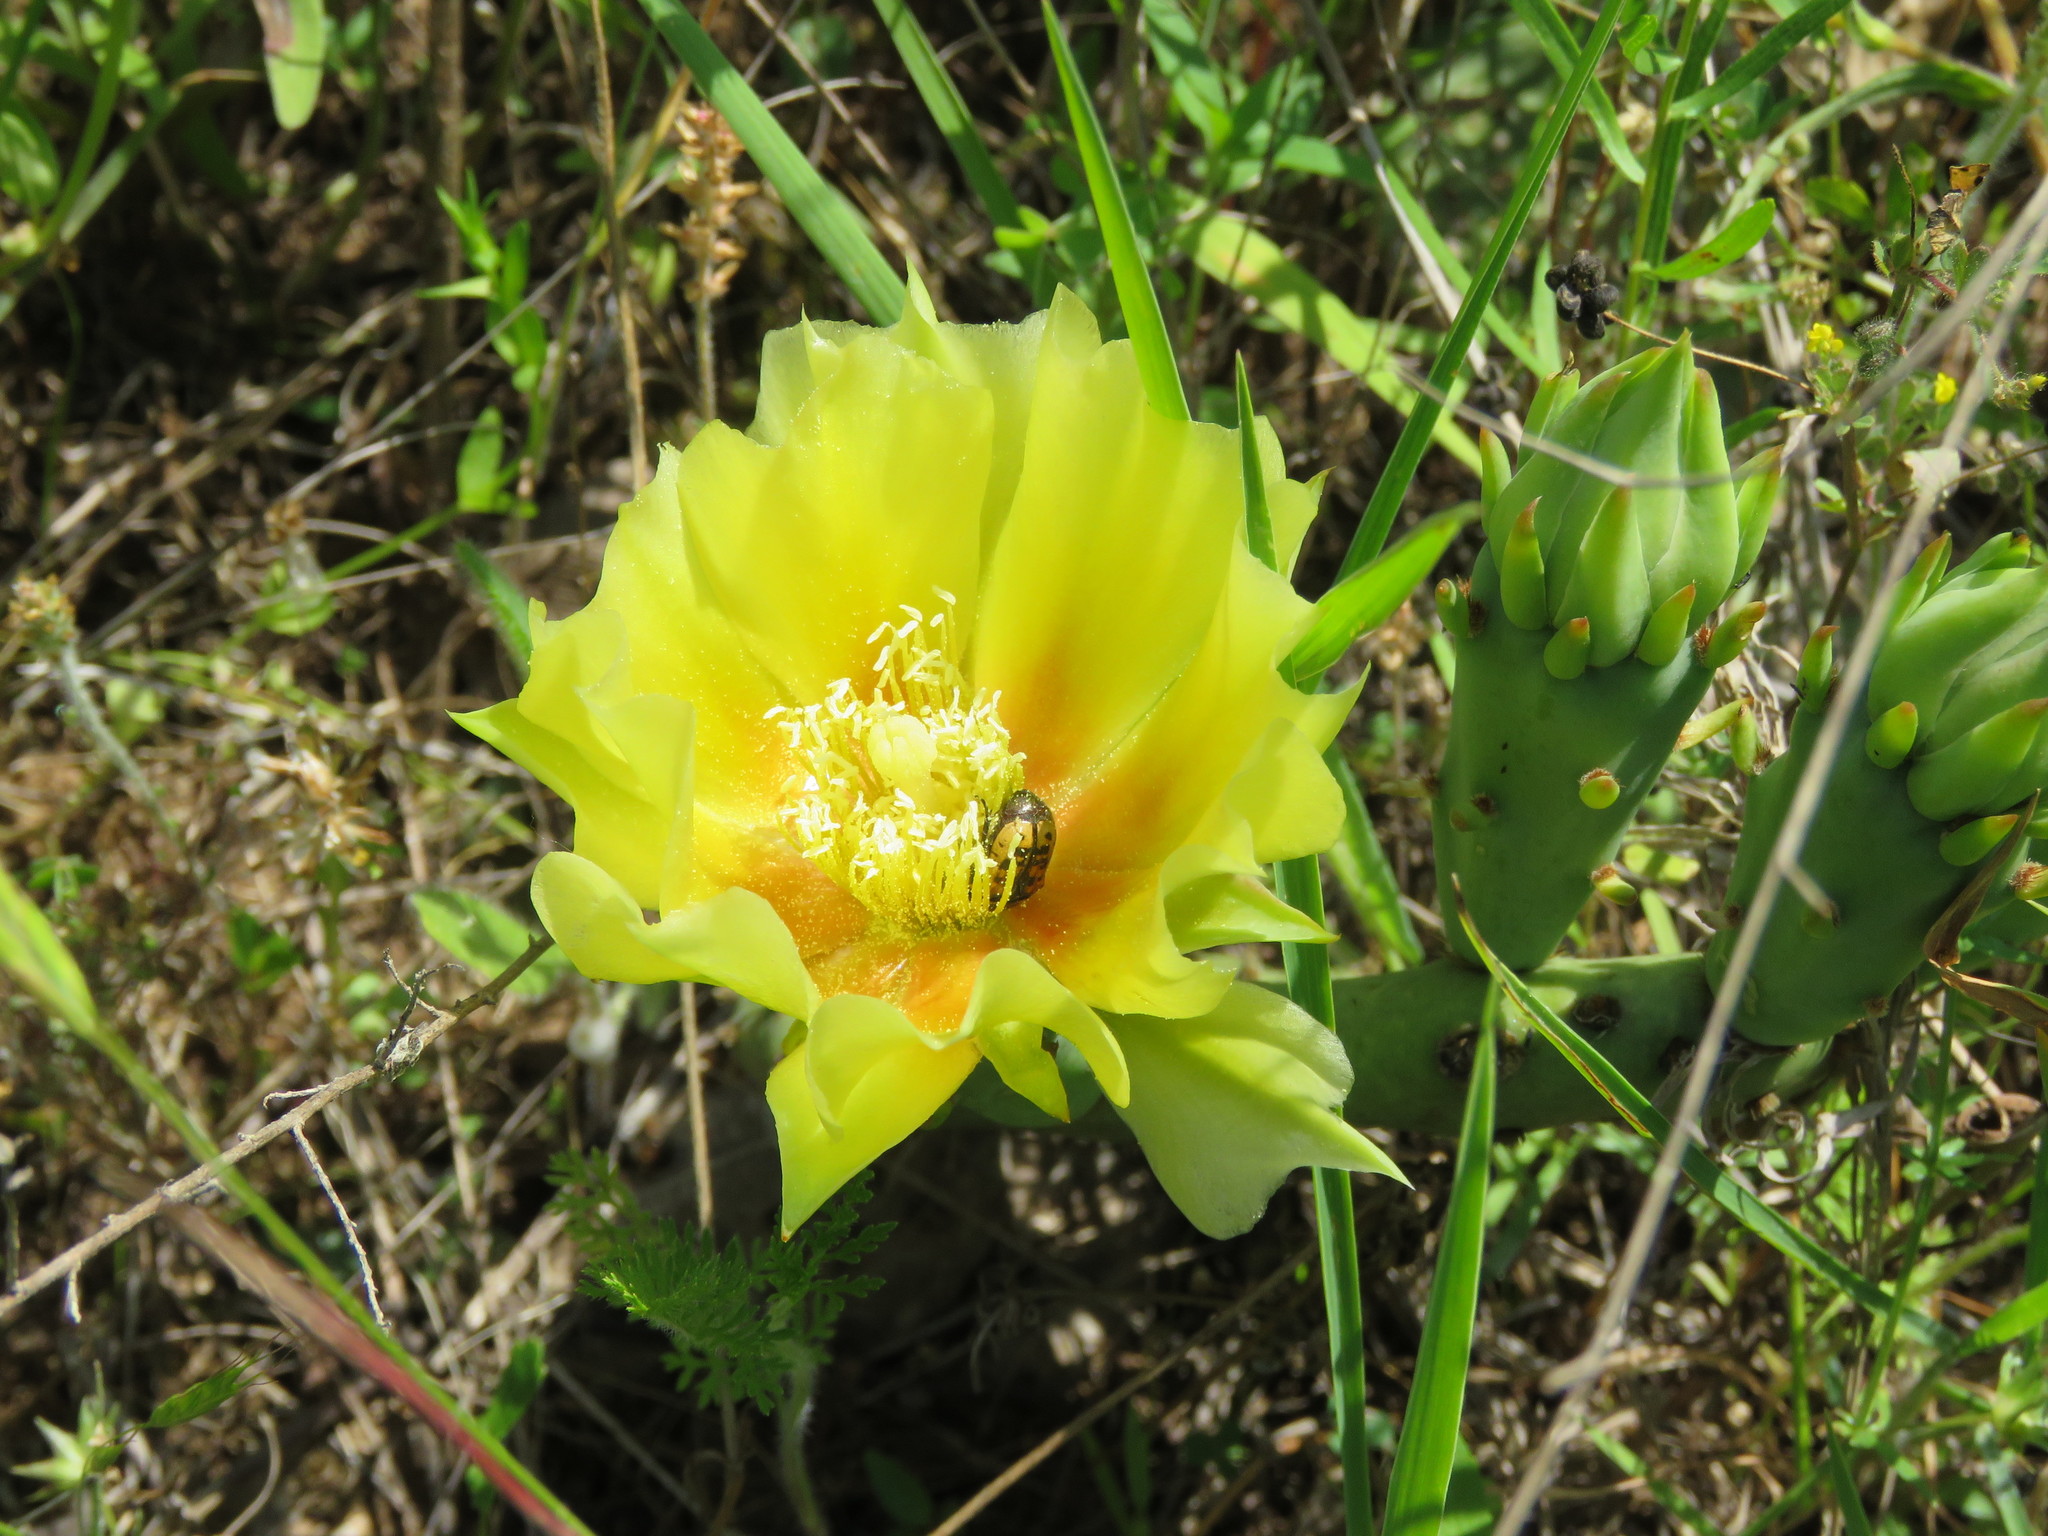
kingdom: Plantae
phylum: Tracheophyta
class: Magnoliopsida
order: Caryophyllales
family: Cactaceae
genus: Opuntia
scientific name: Opuntia macrorhiza
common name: Grassland pricklypear
